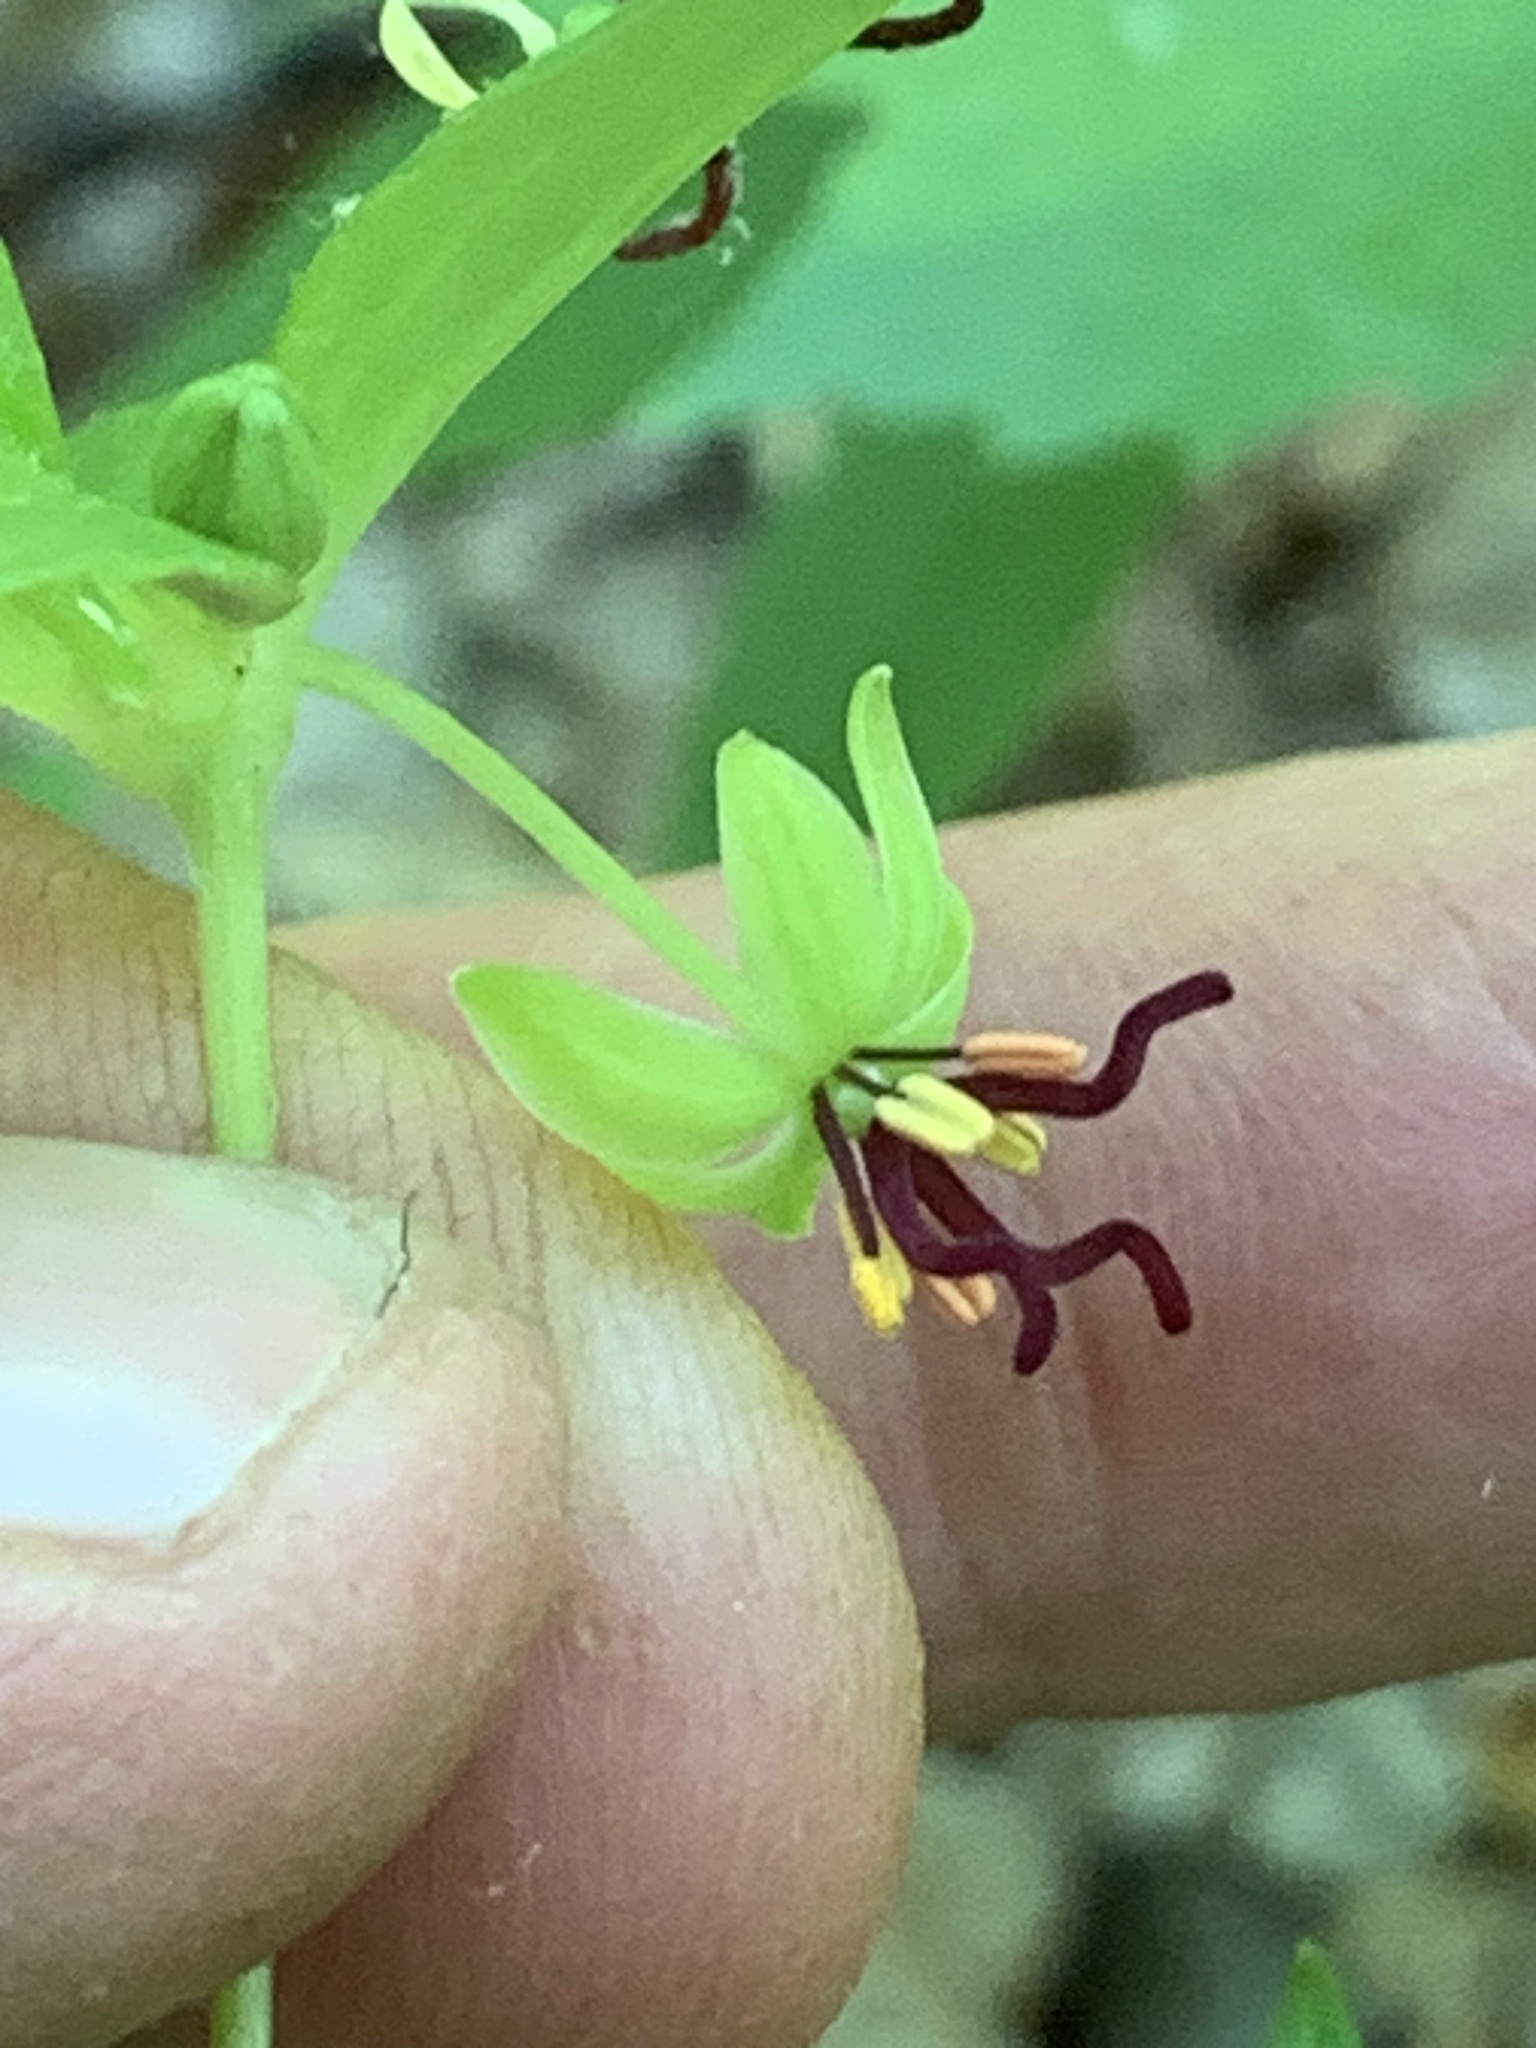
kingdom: Plantae
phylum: Tracheophyta
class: Liliopsida
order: Liliales
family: Liliaceae
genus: Medeola
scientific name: Medeola virginiana
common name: Indian cucumber-root
